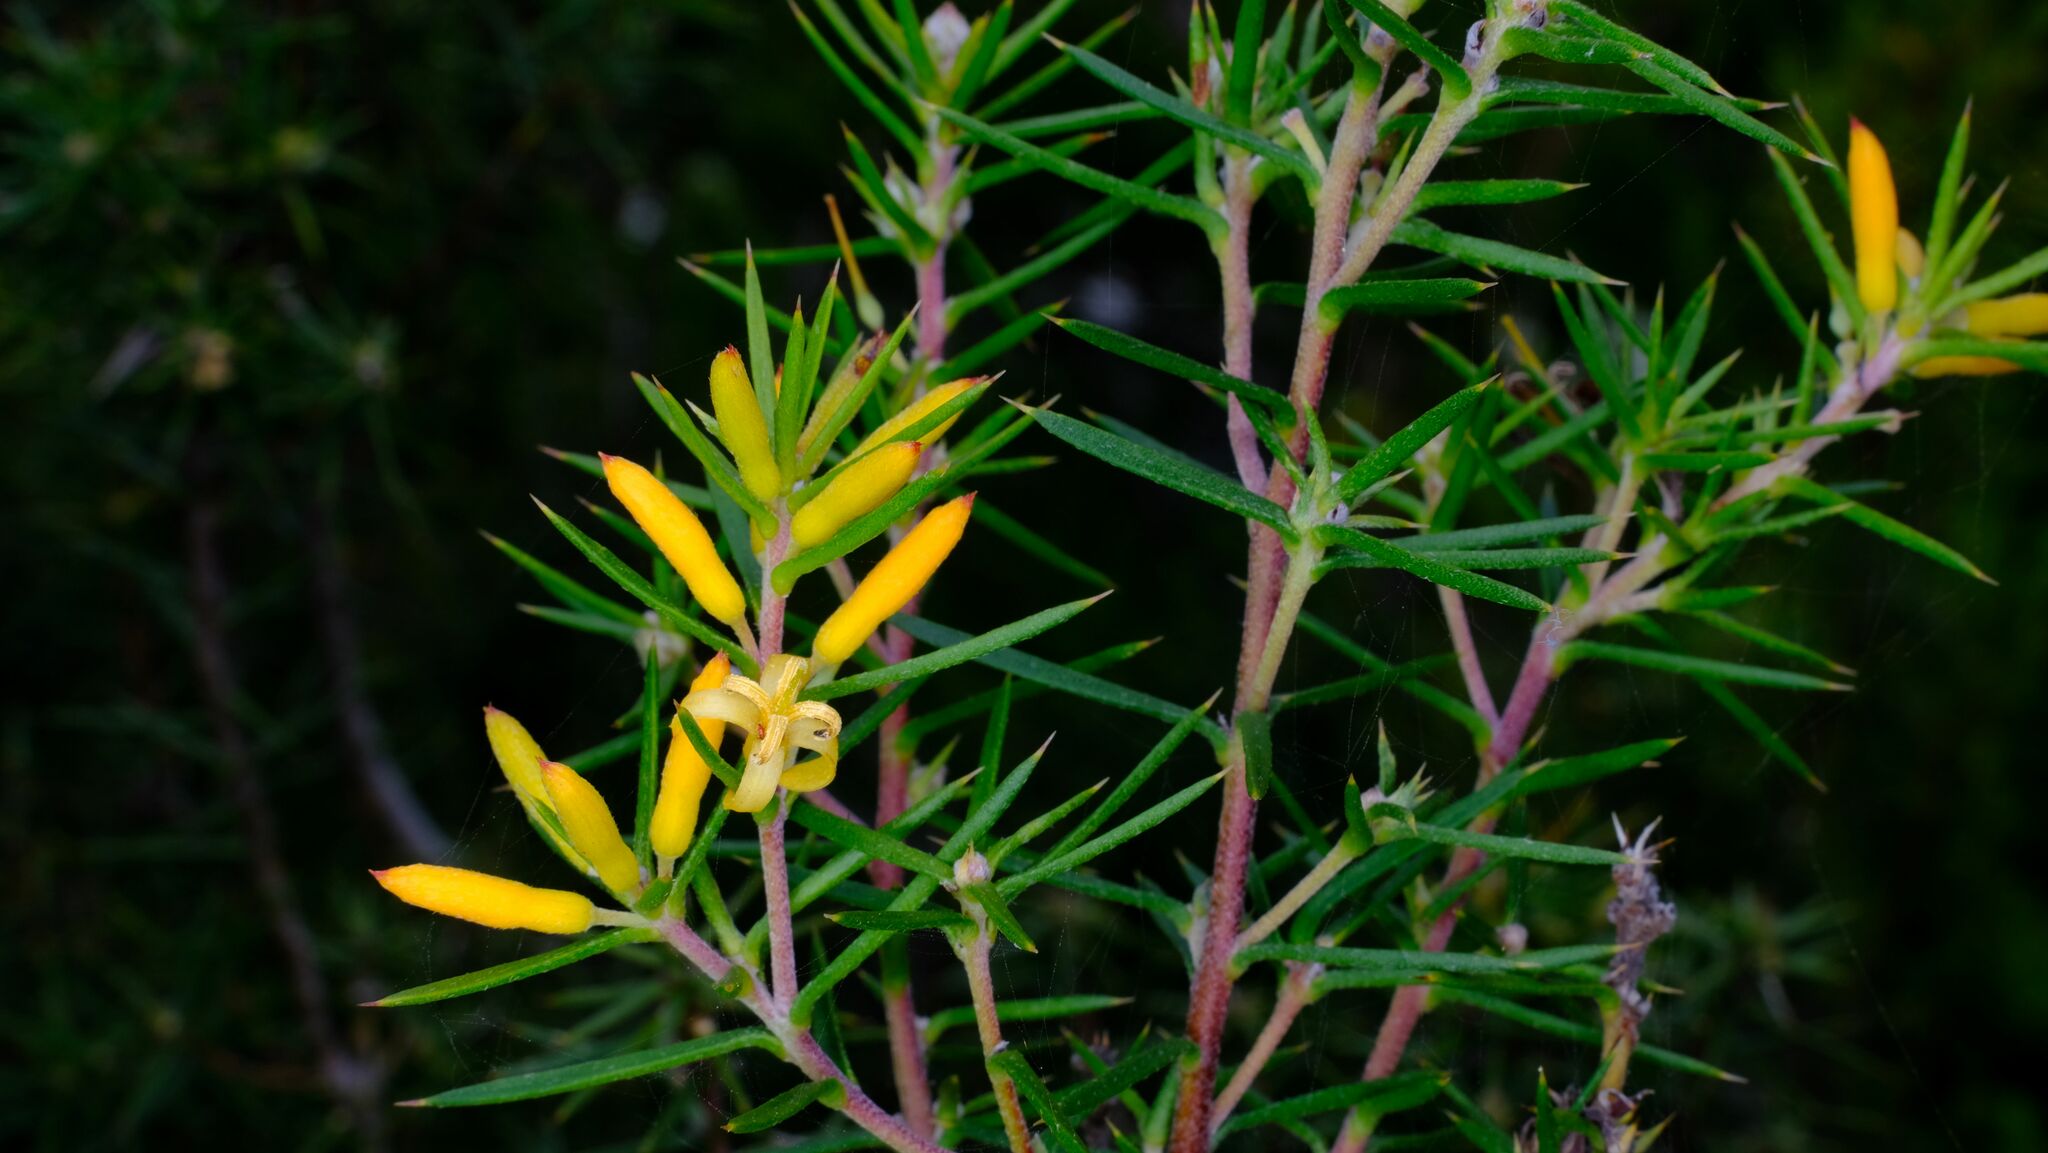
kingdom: Plantae
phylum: Tracheophyta
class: Magnoliopsida
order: Proteales
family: Proteaceae
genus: Persoonia
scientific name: Persoonia juniperina
